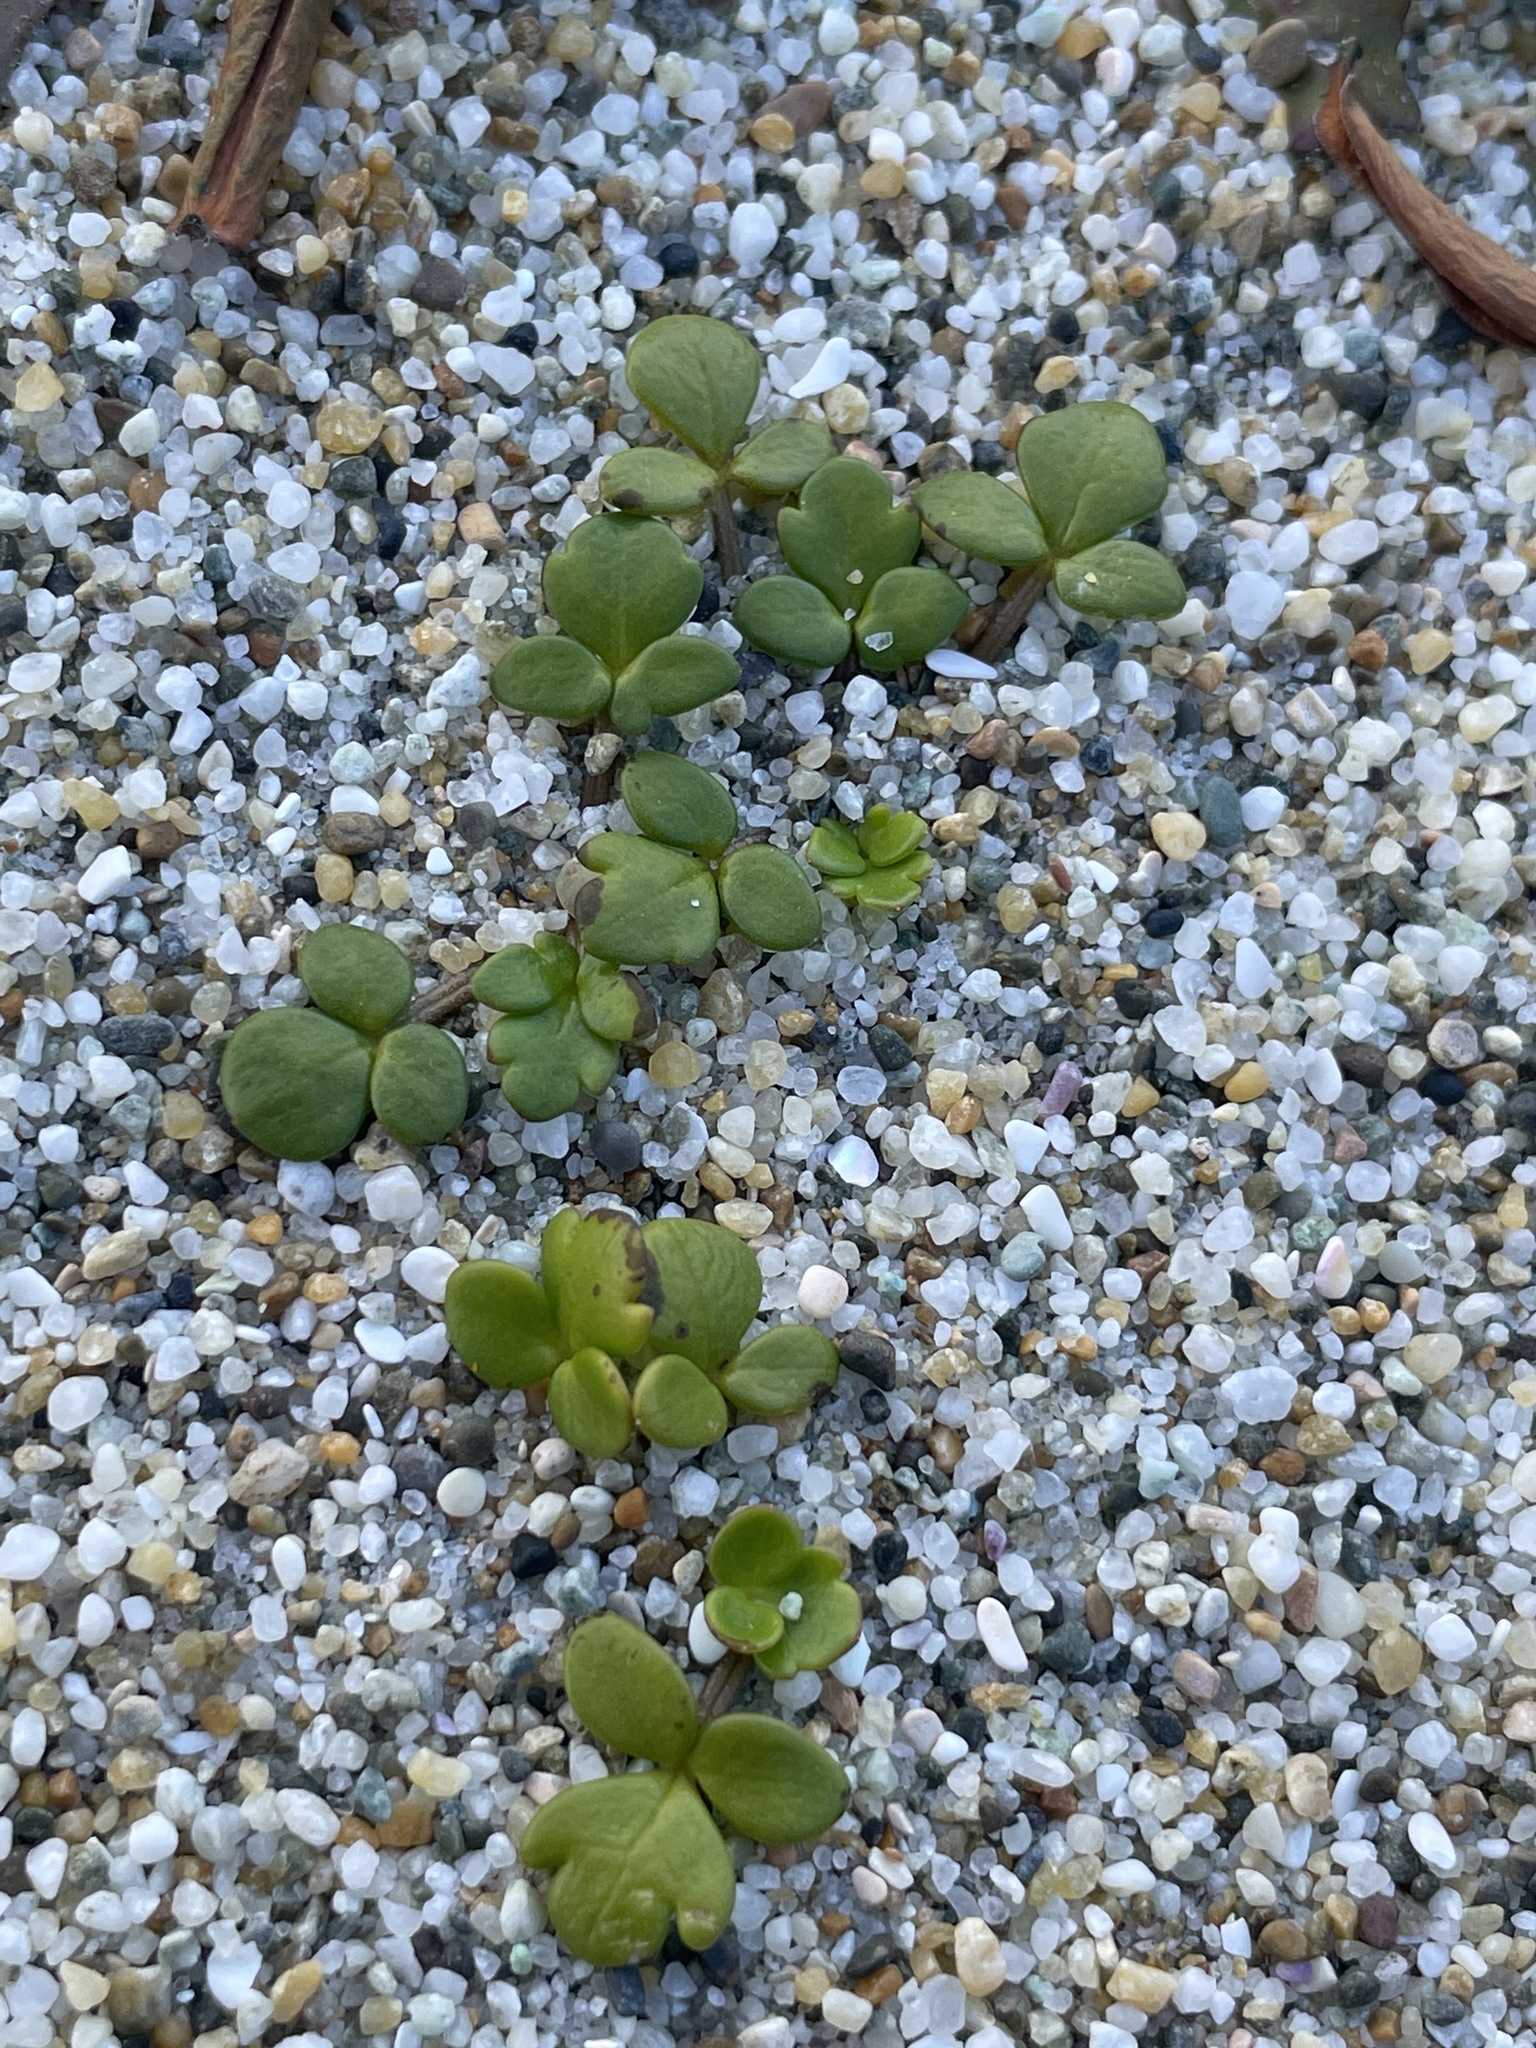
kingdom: Plantae
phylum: Tracheophyta
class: Magnoliopsida
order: Ranunculales
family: Ranunculaceae
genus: Ranunculus
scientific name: Ranunculus acaulis
